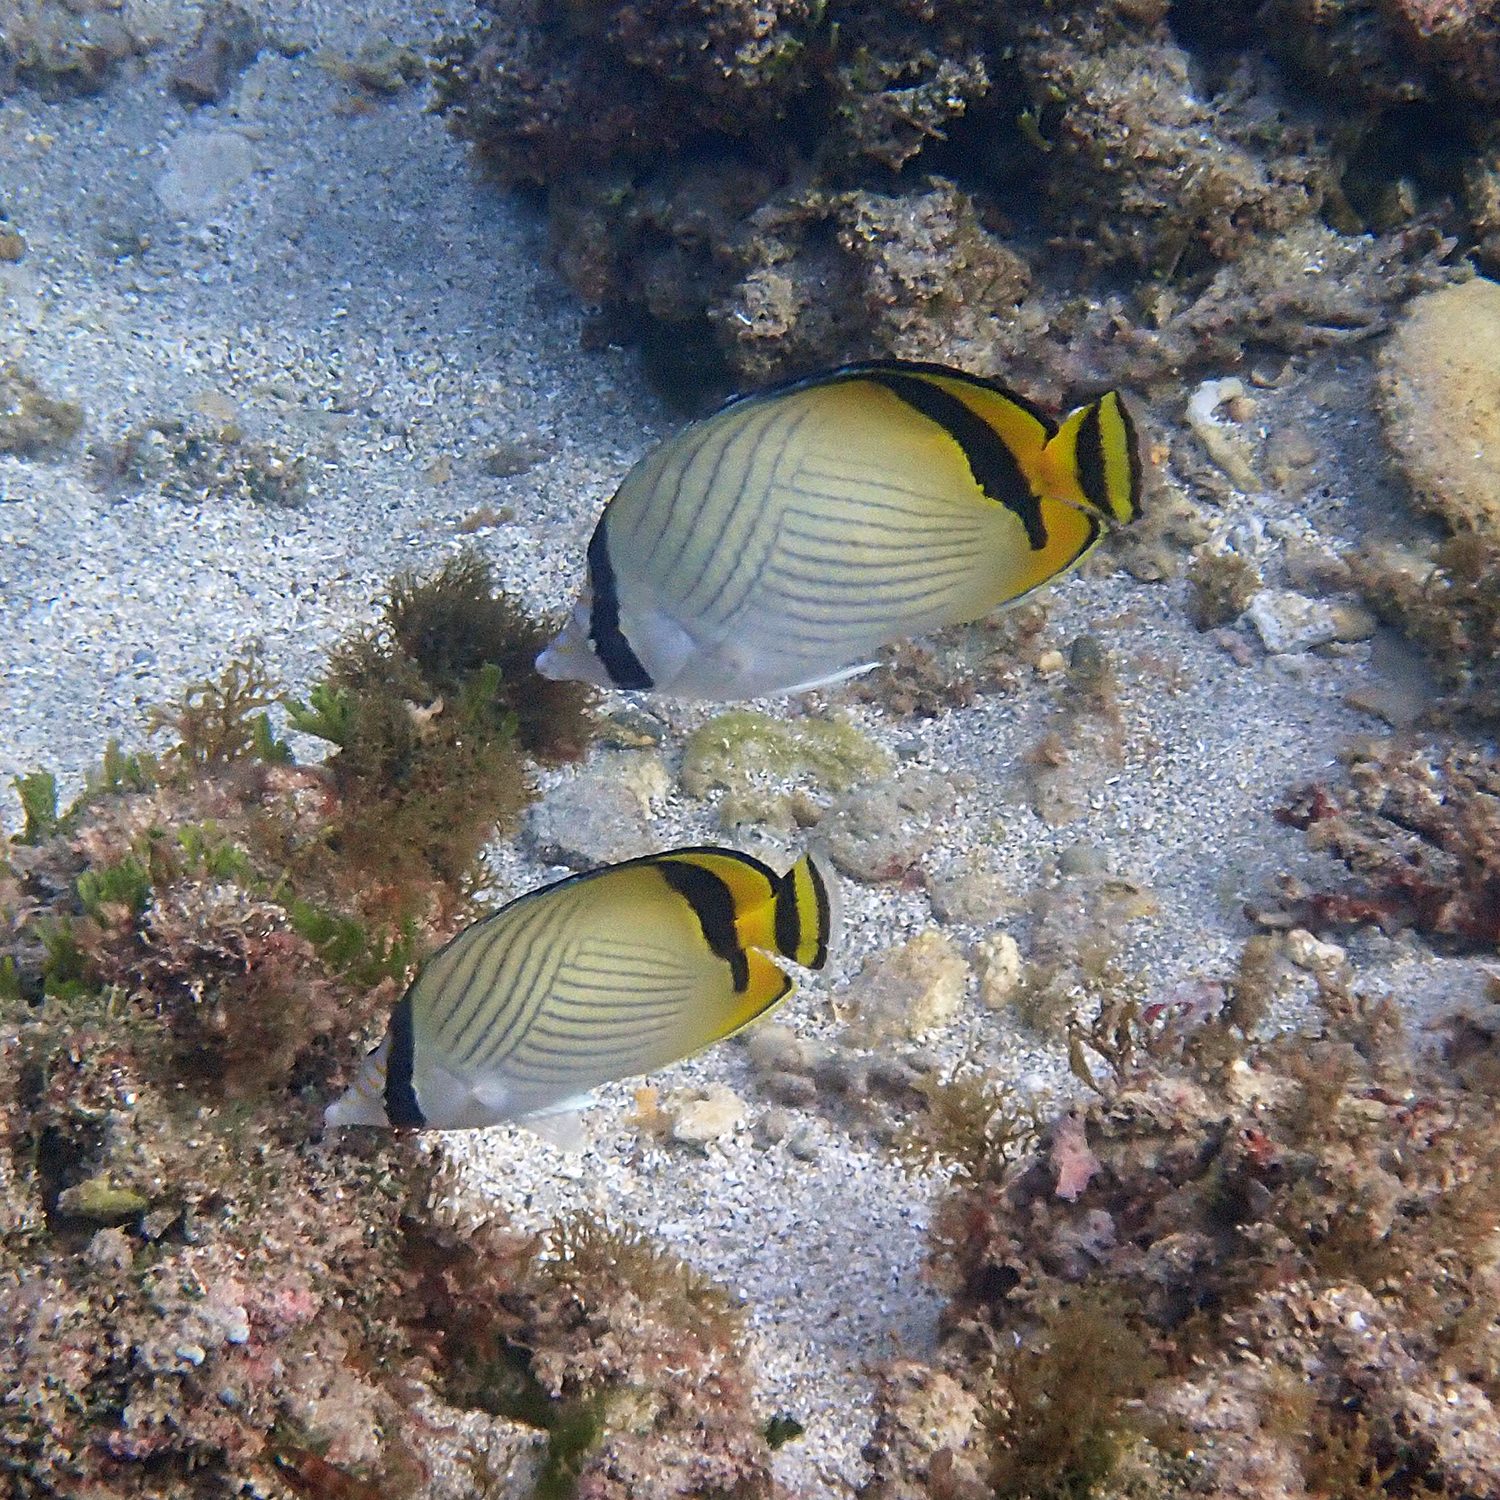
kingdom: Animalia
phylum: Chordata
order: Perciformes
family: Chaetodontidae
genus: Chaetodon
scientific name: Chaetodon vagabundus
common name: Vagabond butterflyfish
